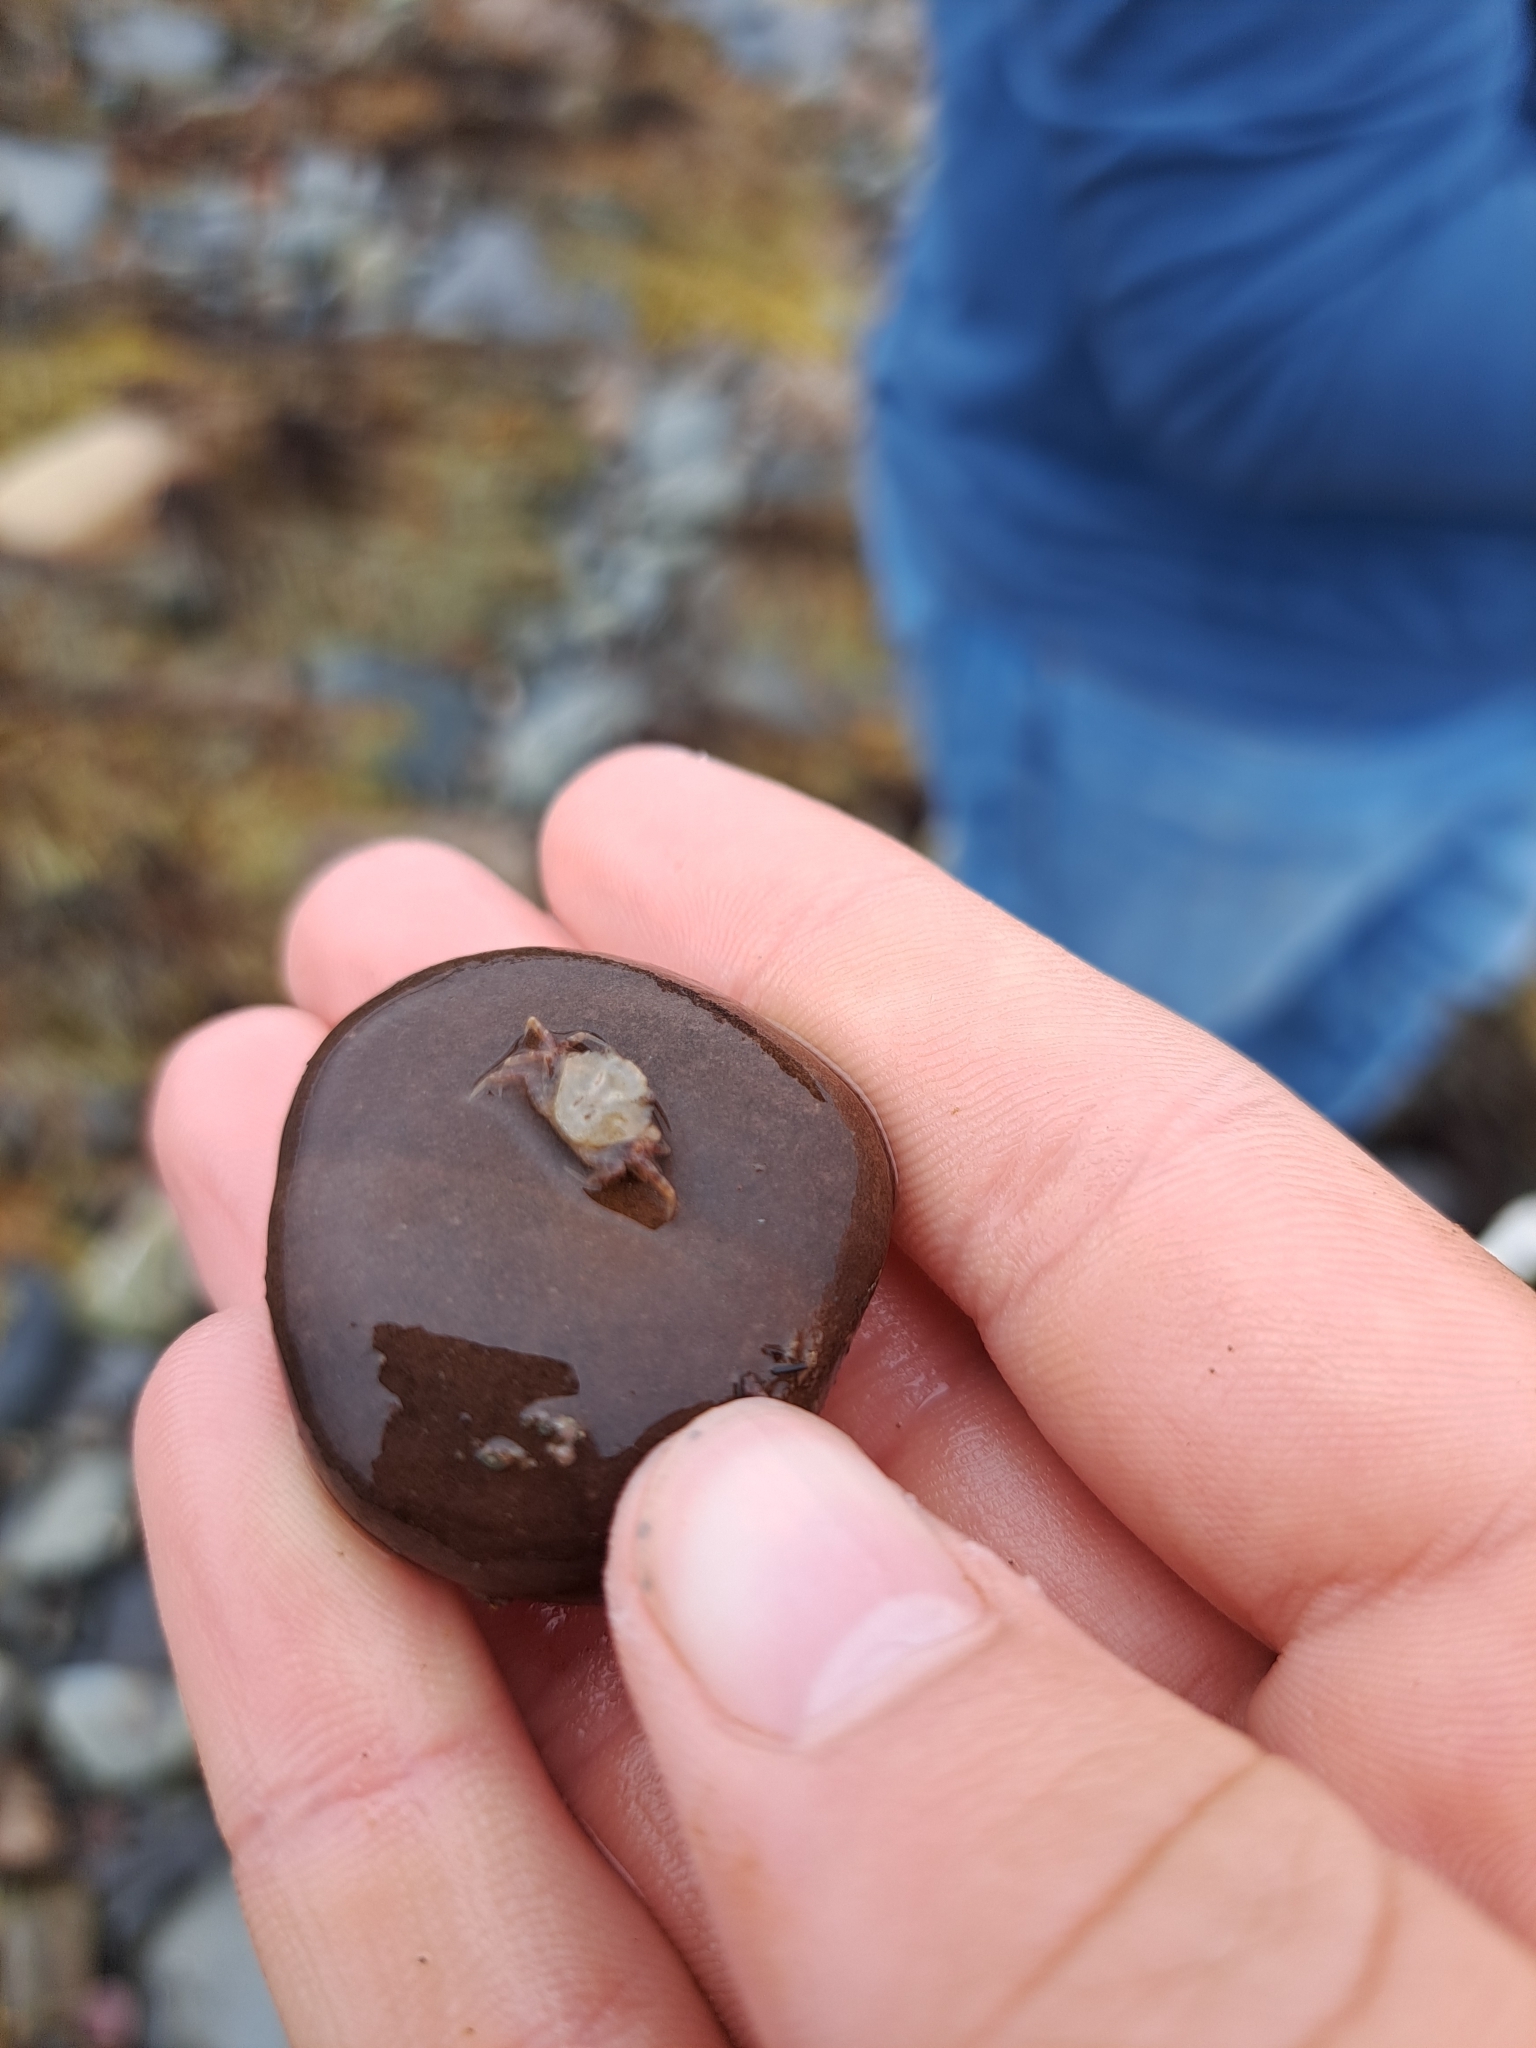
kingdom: Animalia
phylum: Arthropoda
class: Malacostraca
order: Decapoda
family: Carcinidae
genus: Carcinus
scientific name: Carcinus maenas
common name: European green crab
